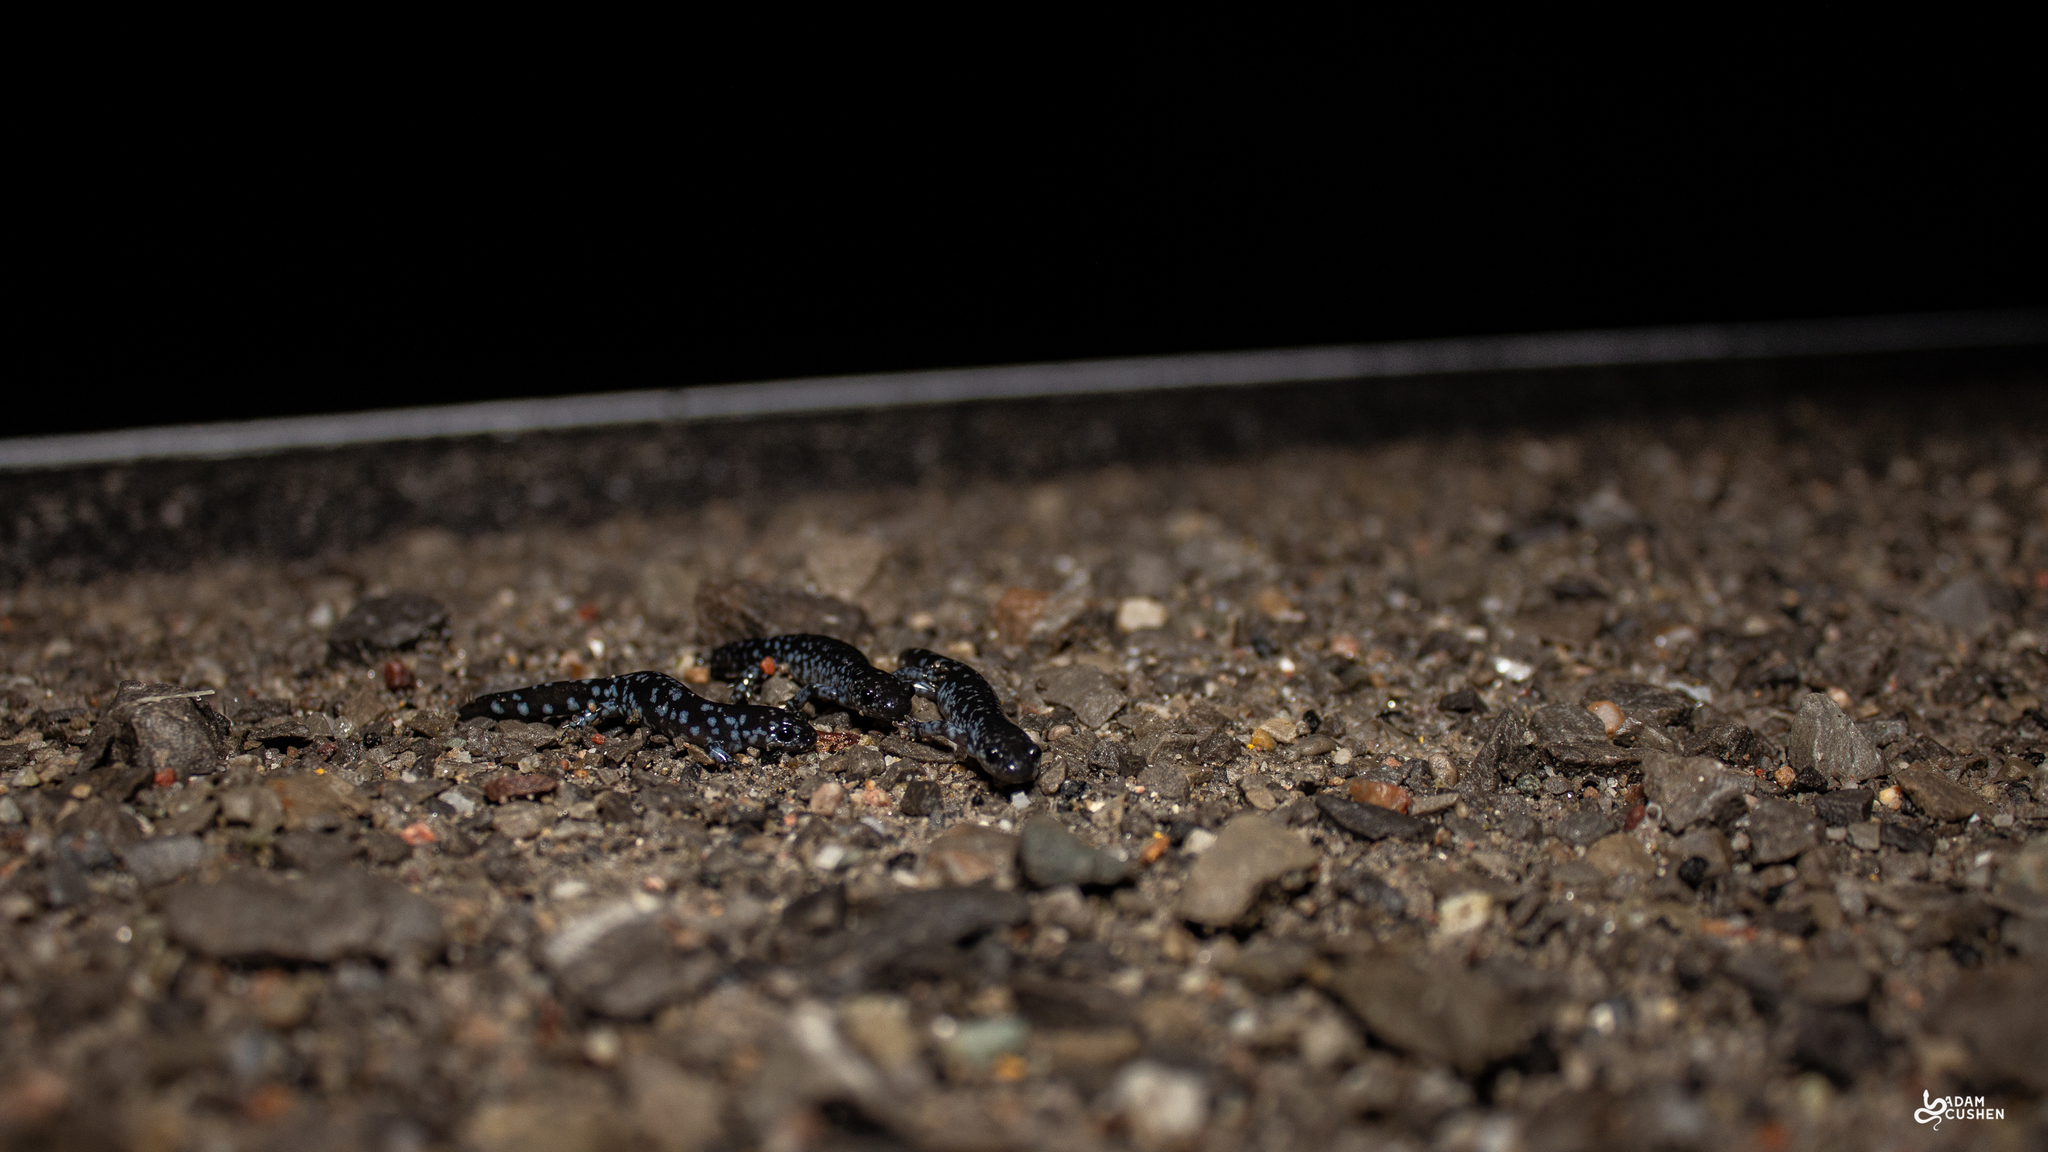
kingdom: Animalia
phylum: Chordata
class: Amphibia
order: Caudata
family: Ambystomatidae
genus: Ambystoma
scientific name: Ambystoma laterale
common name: Blue-spotted salamander
